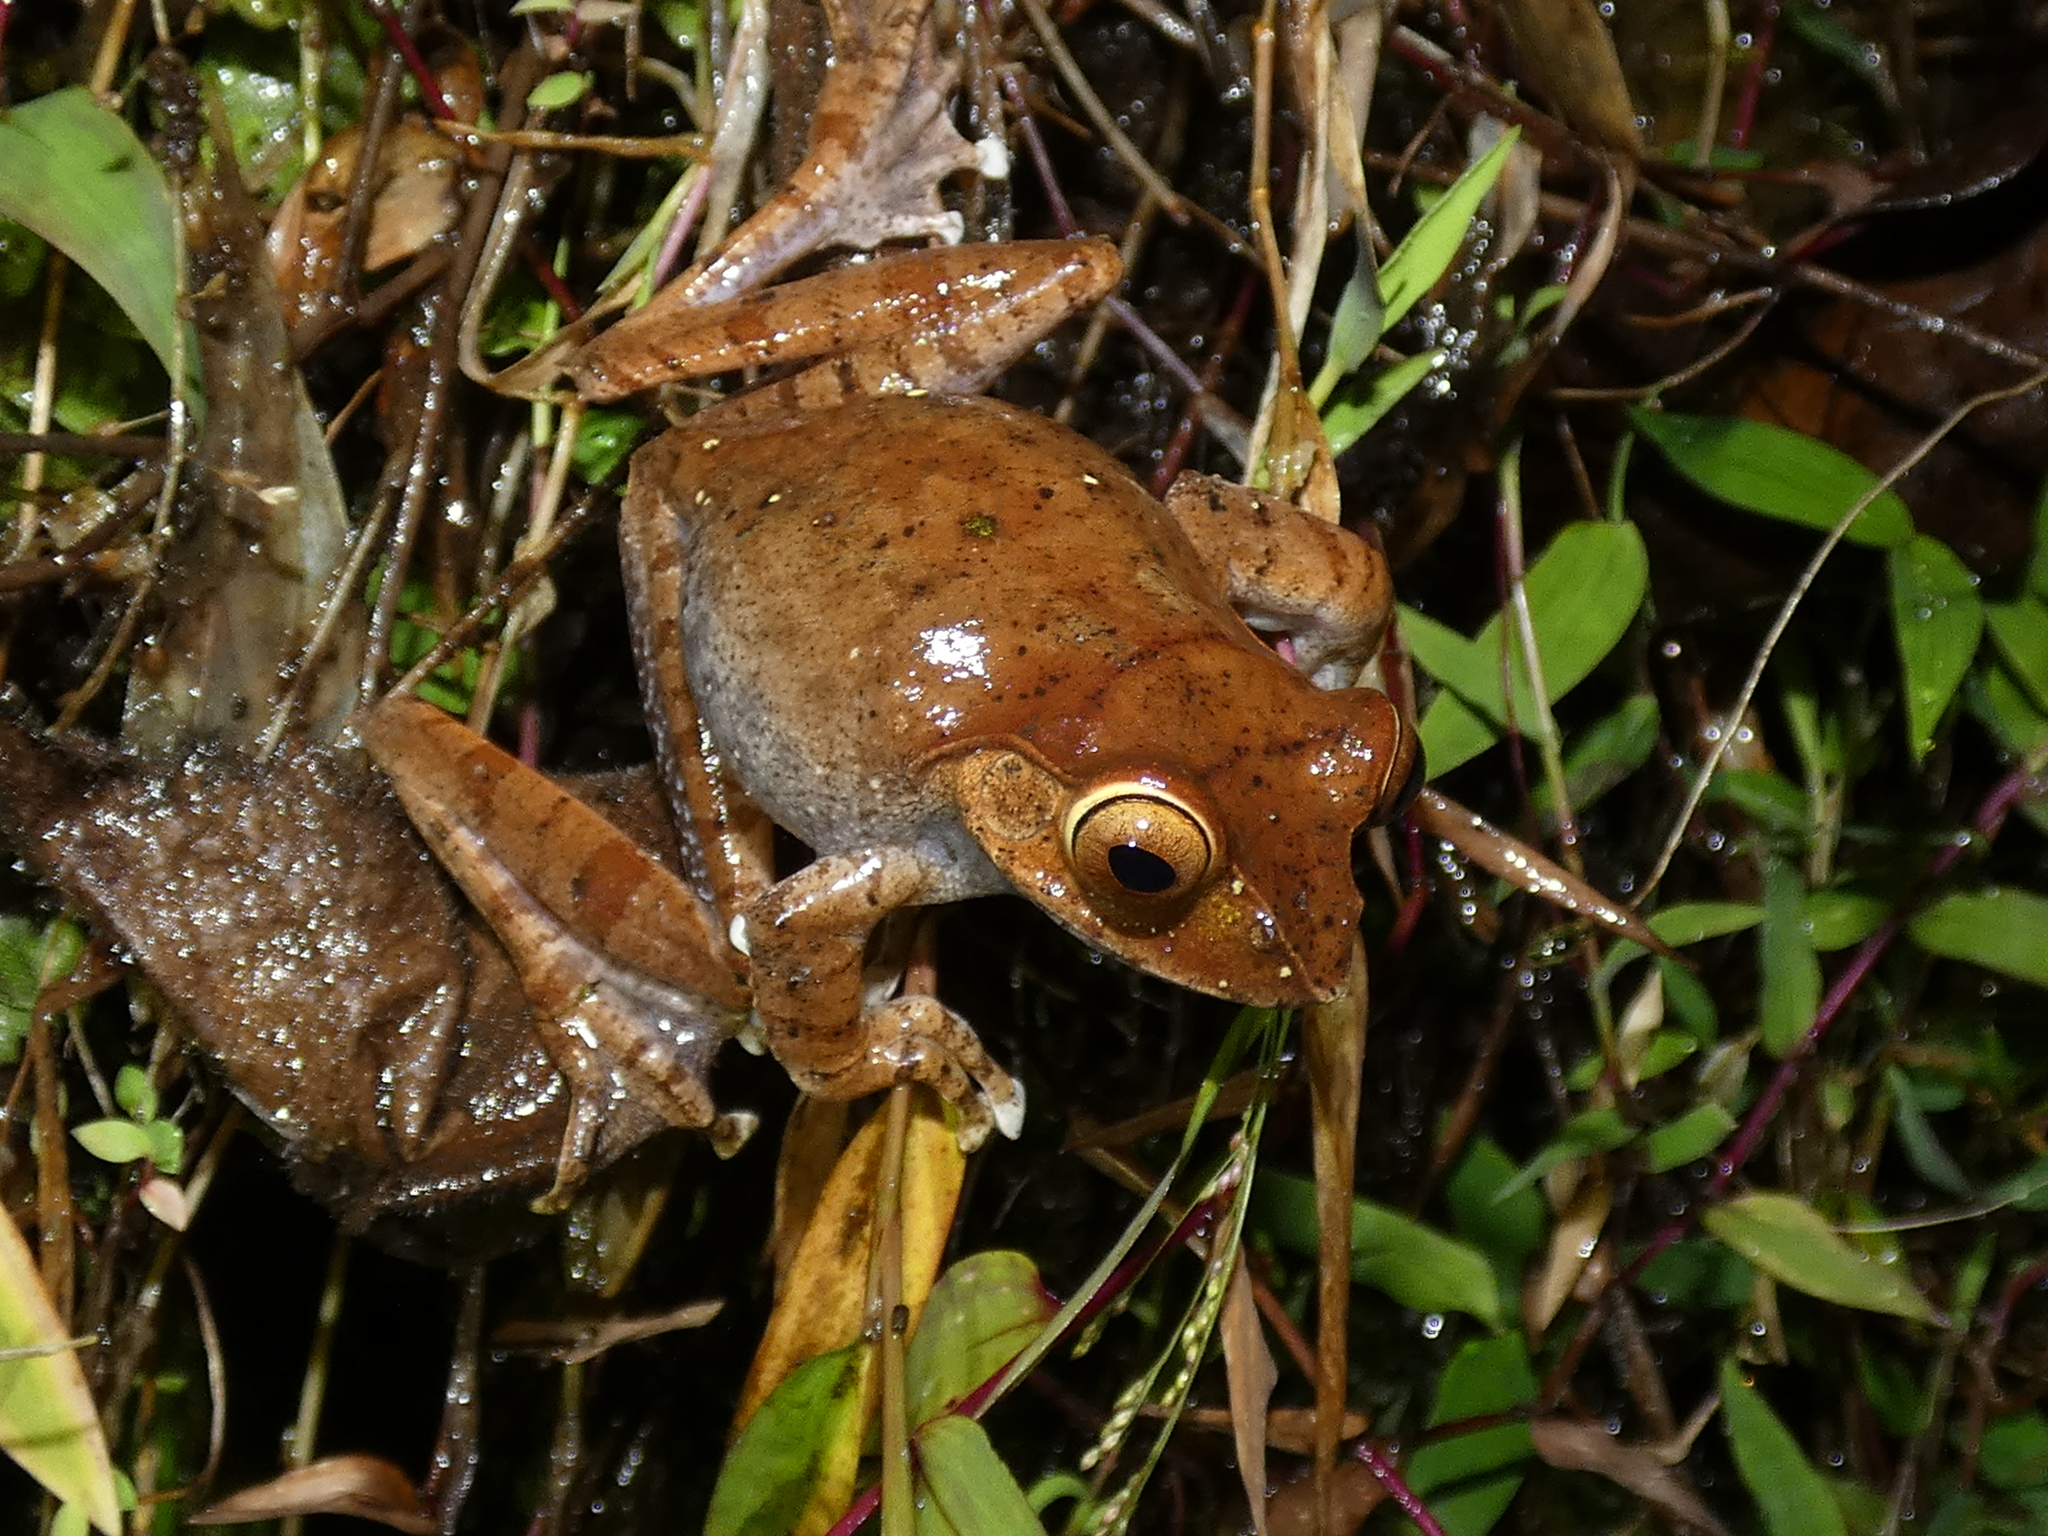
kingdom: Animalia
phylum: Chordata
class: Amphibia
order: Anura
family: Mantellidae
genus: Boophis
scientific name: Boophis madagascariensis
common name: Madagascar bright-eyed frog
